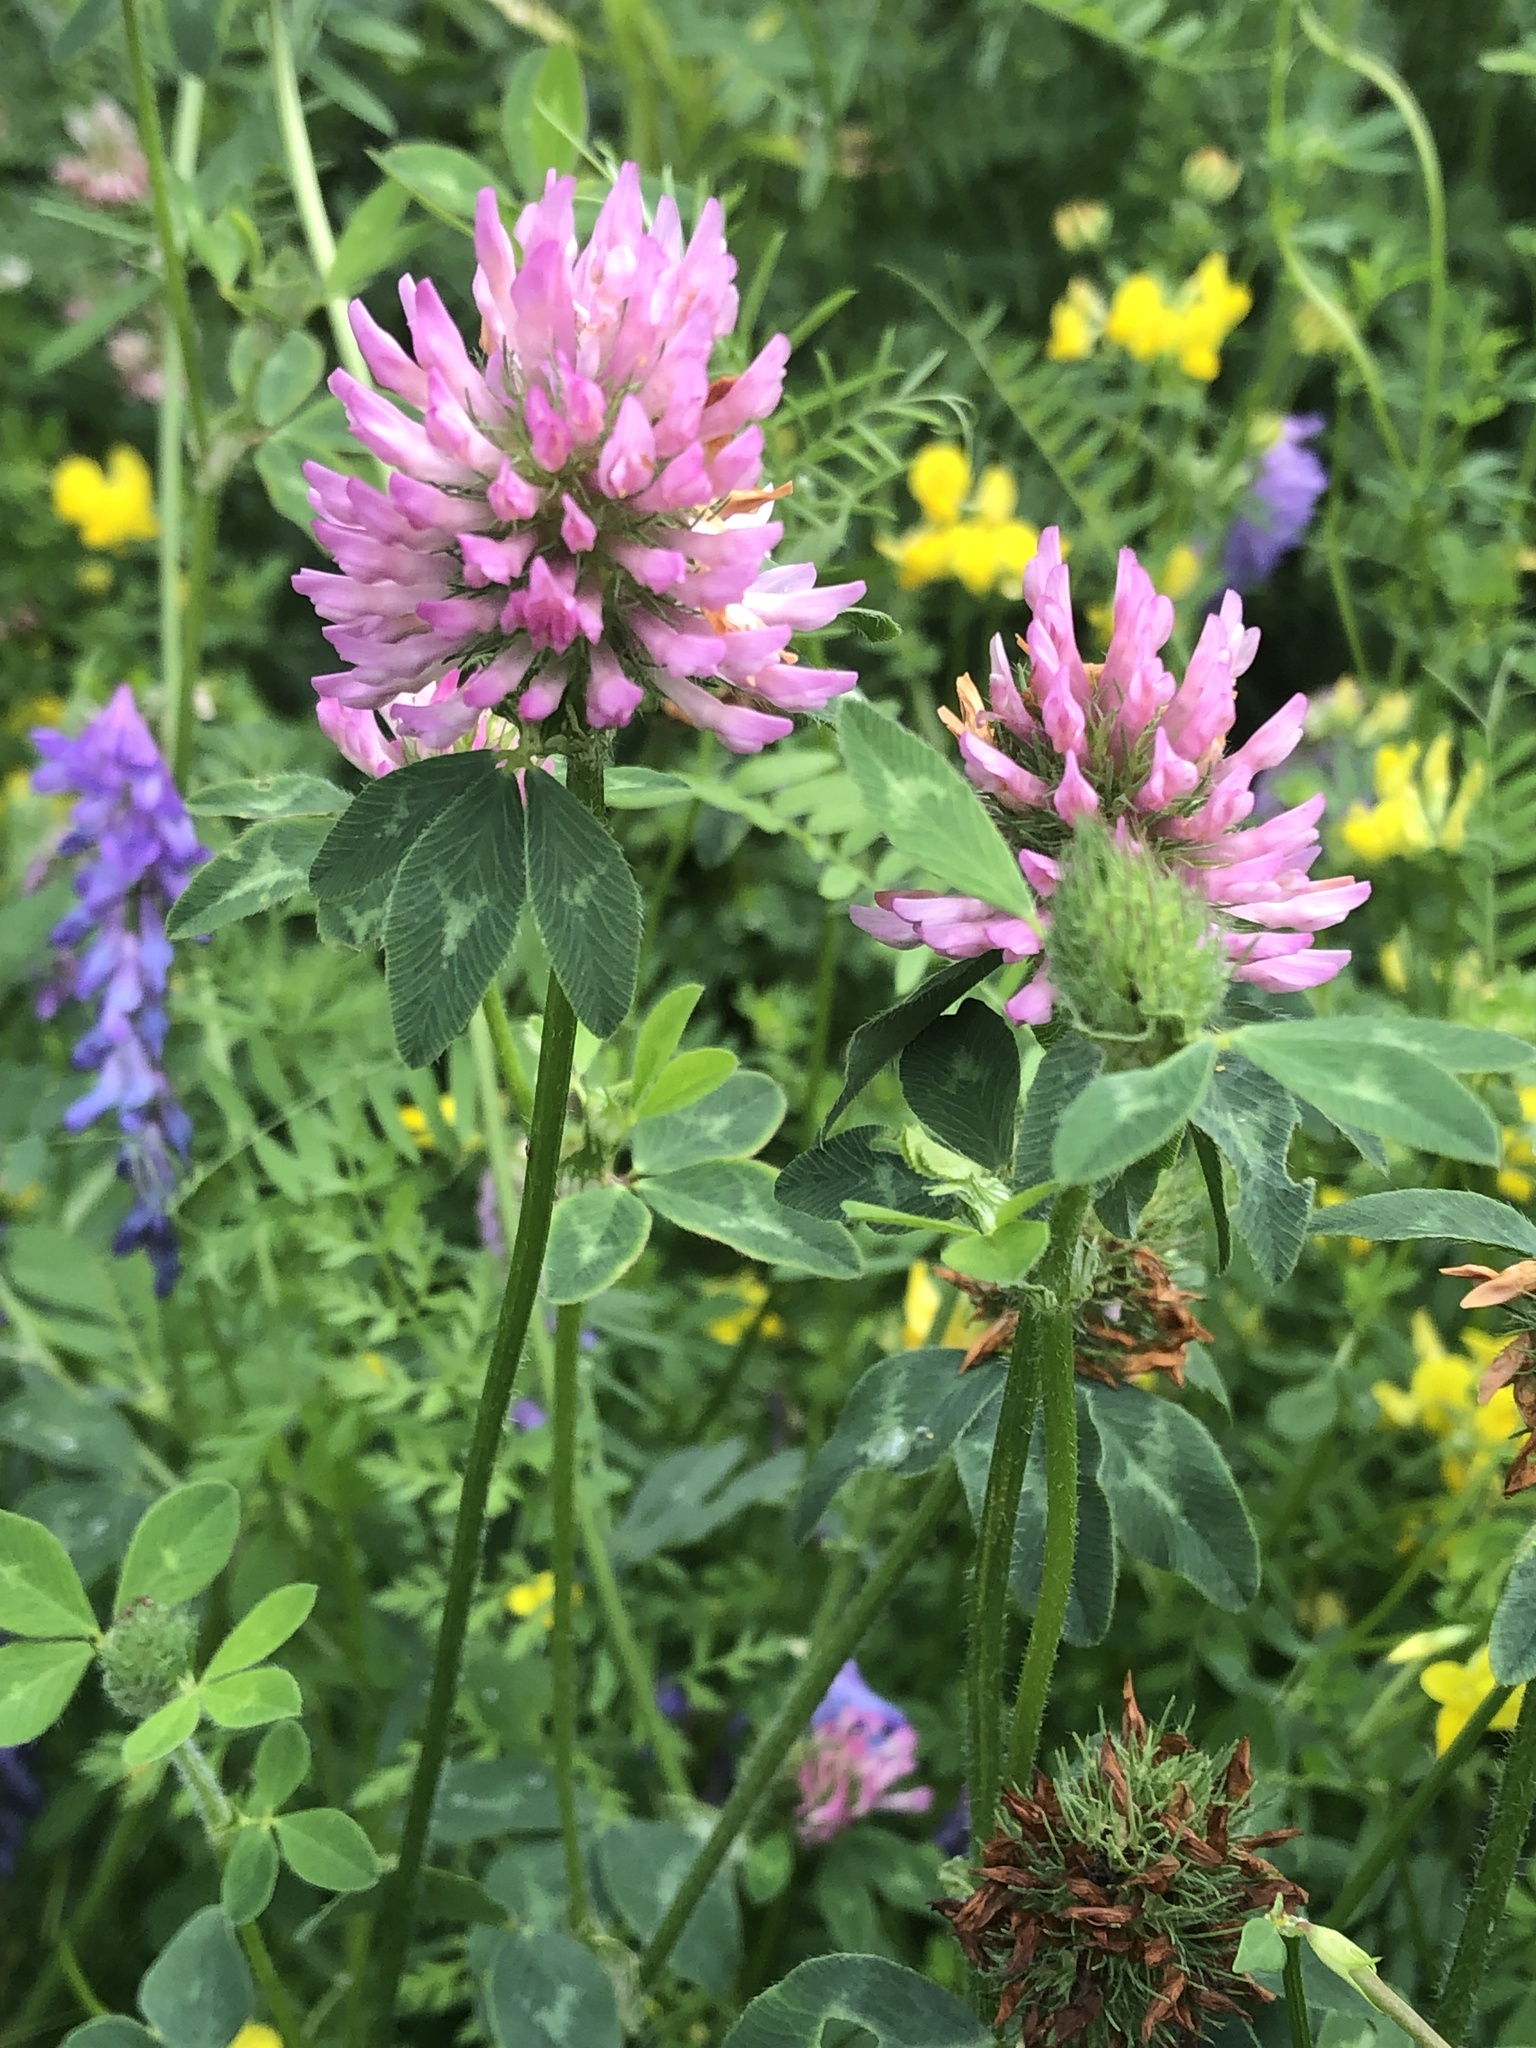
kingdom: Plantae
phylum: Tracheophyta
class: Magnoliopsida
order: Fabales
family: Fabaceae
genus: Trifolium
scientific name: Trifolium pratense
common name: Red clover
